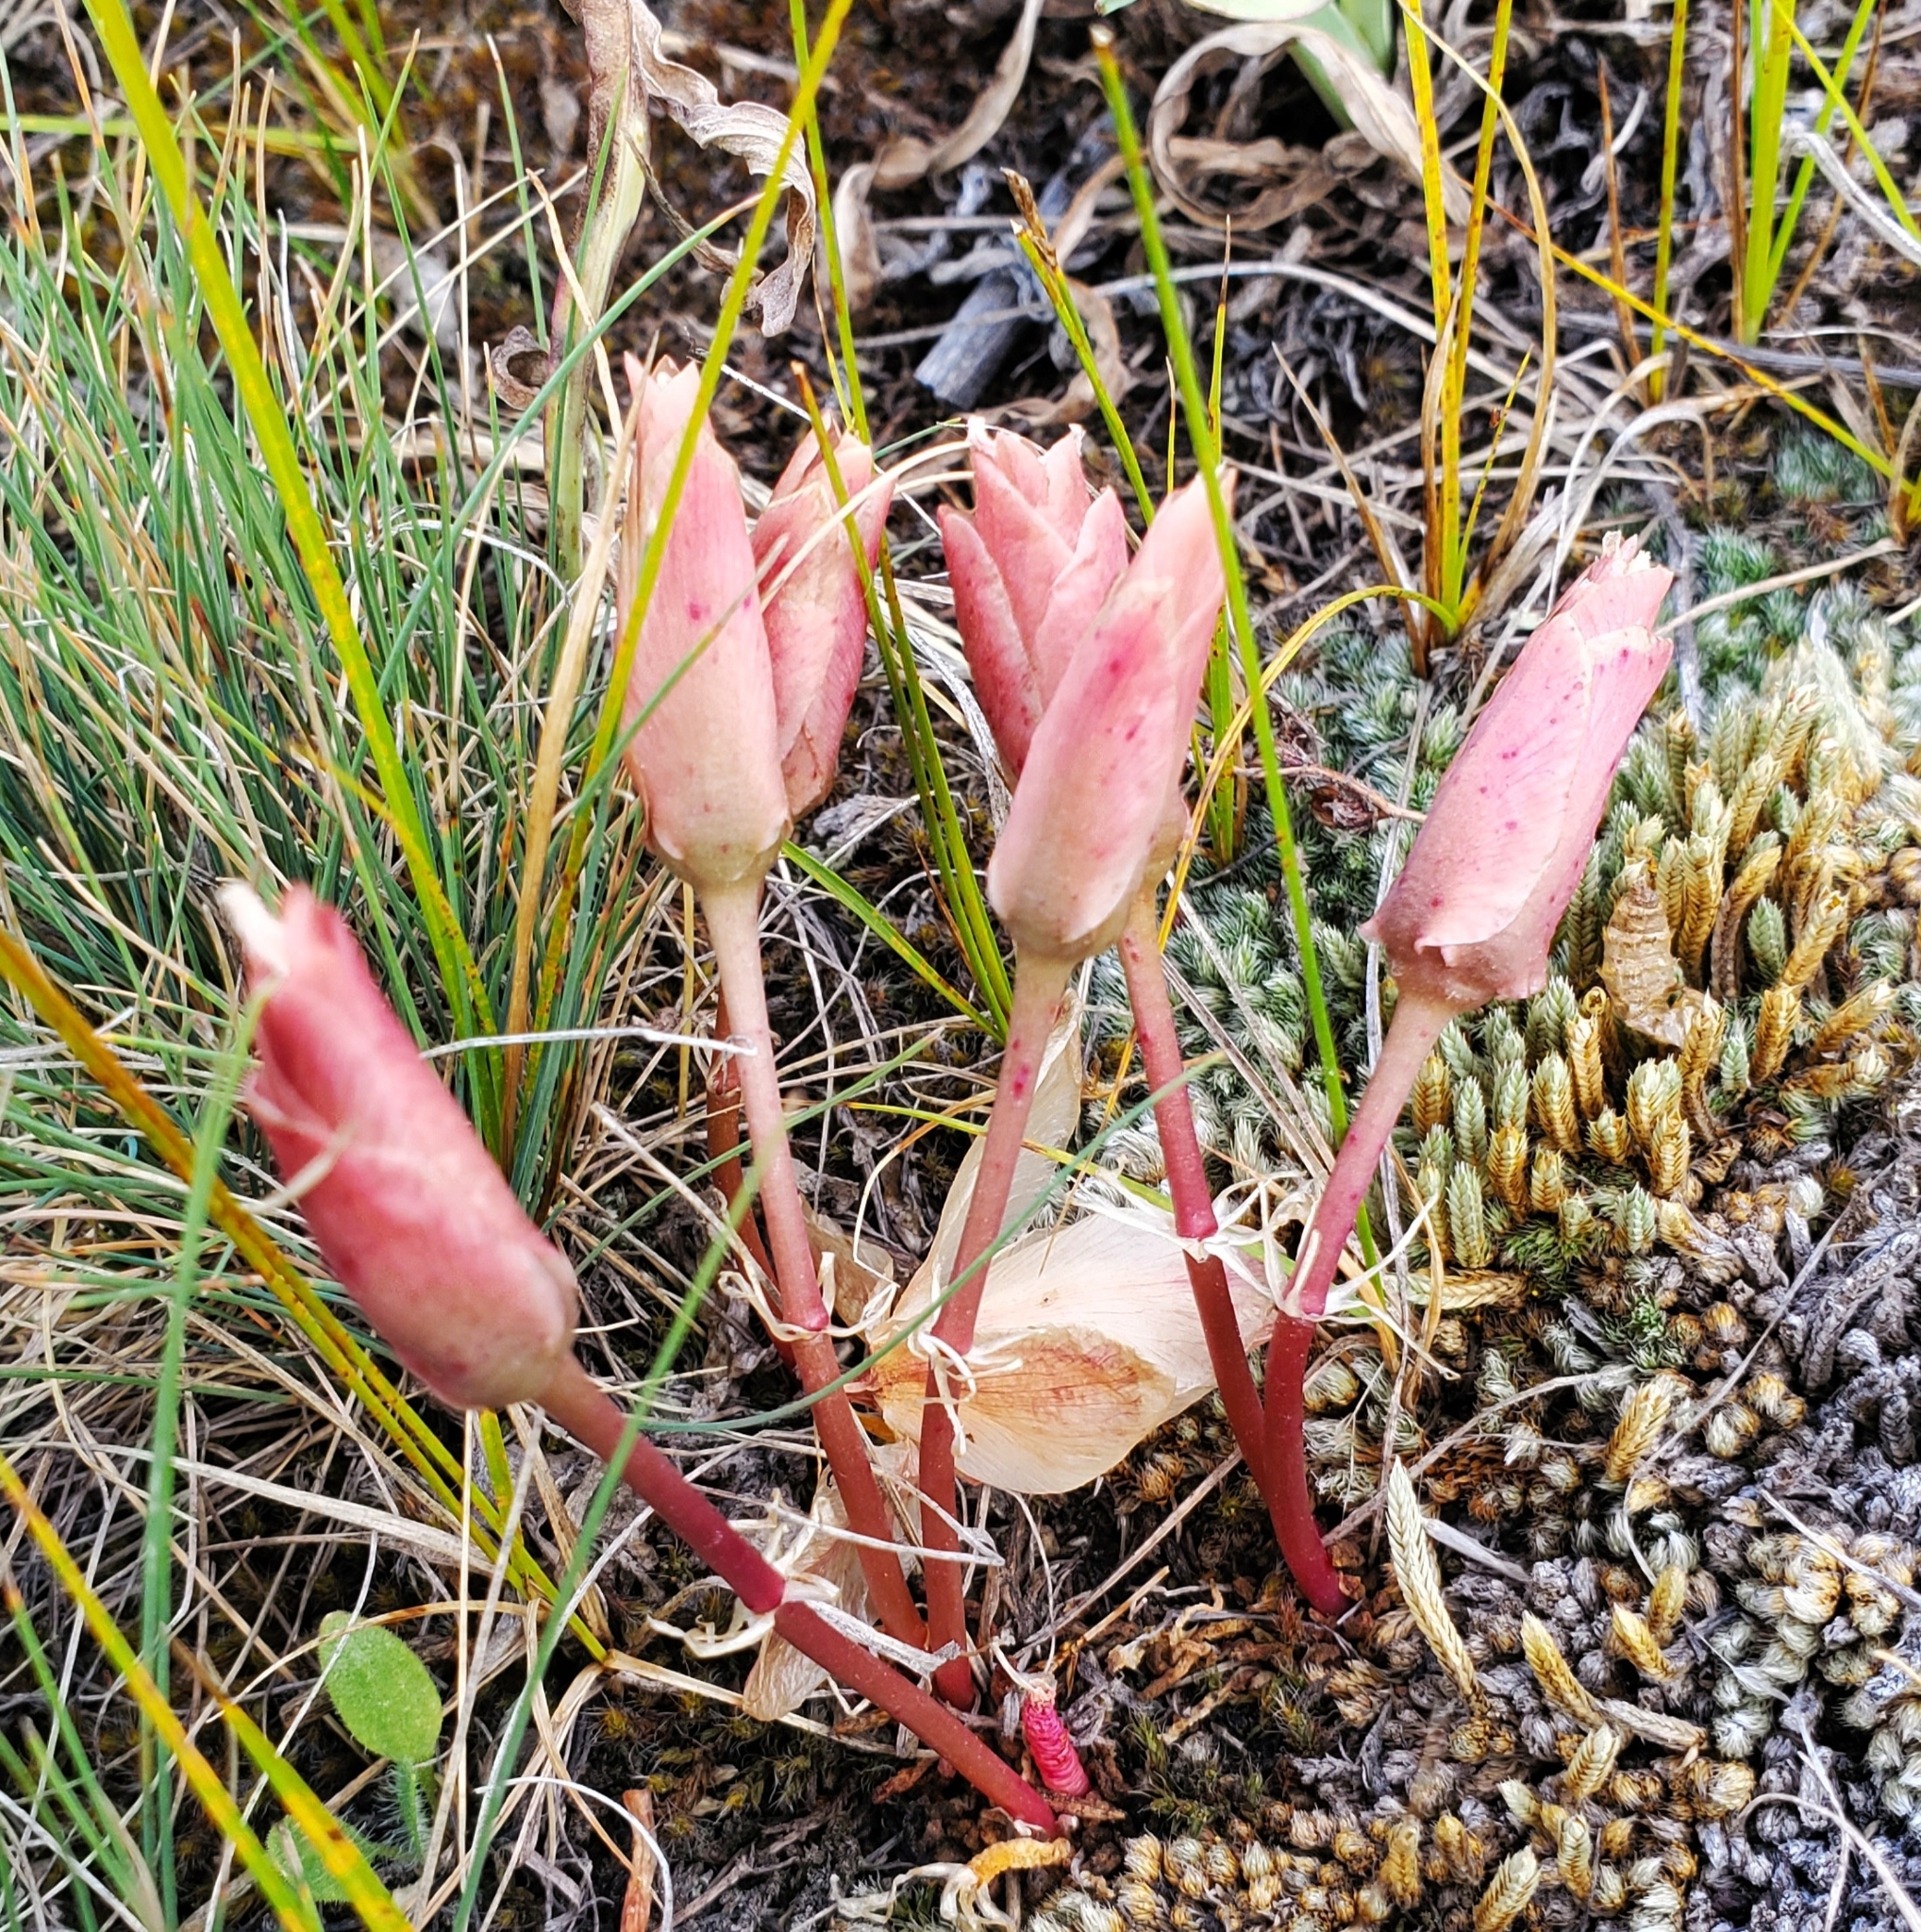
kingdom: Plantae
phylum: Tracheophyta
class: Magnoliopsida
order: Caryophyllales
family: Montiaceae
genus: Lewisia
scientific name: Lewisia rediviva
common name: Bitter-root
